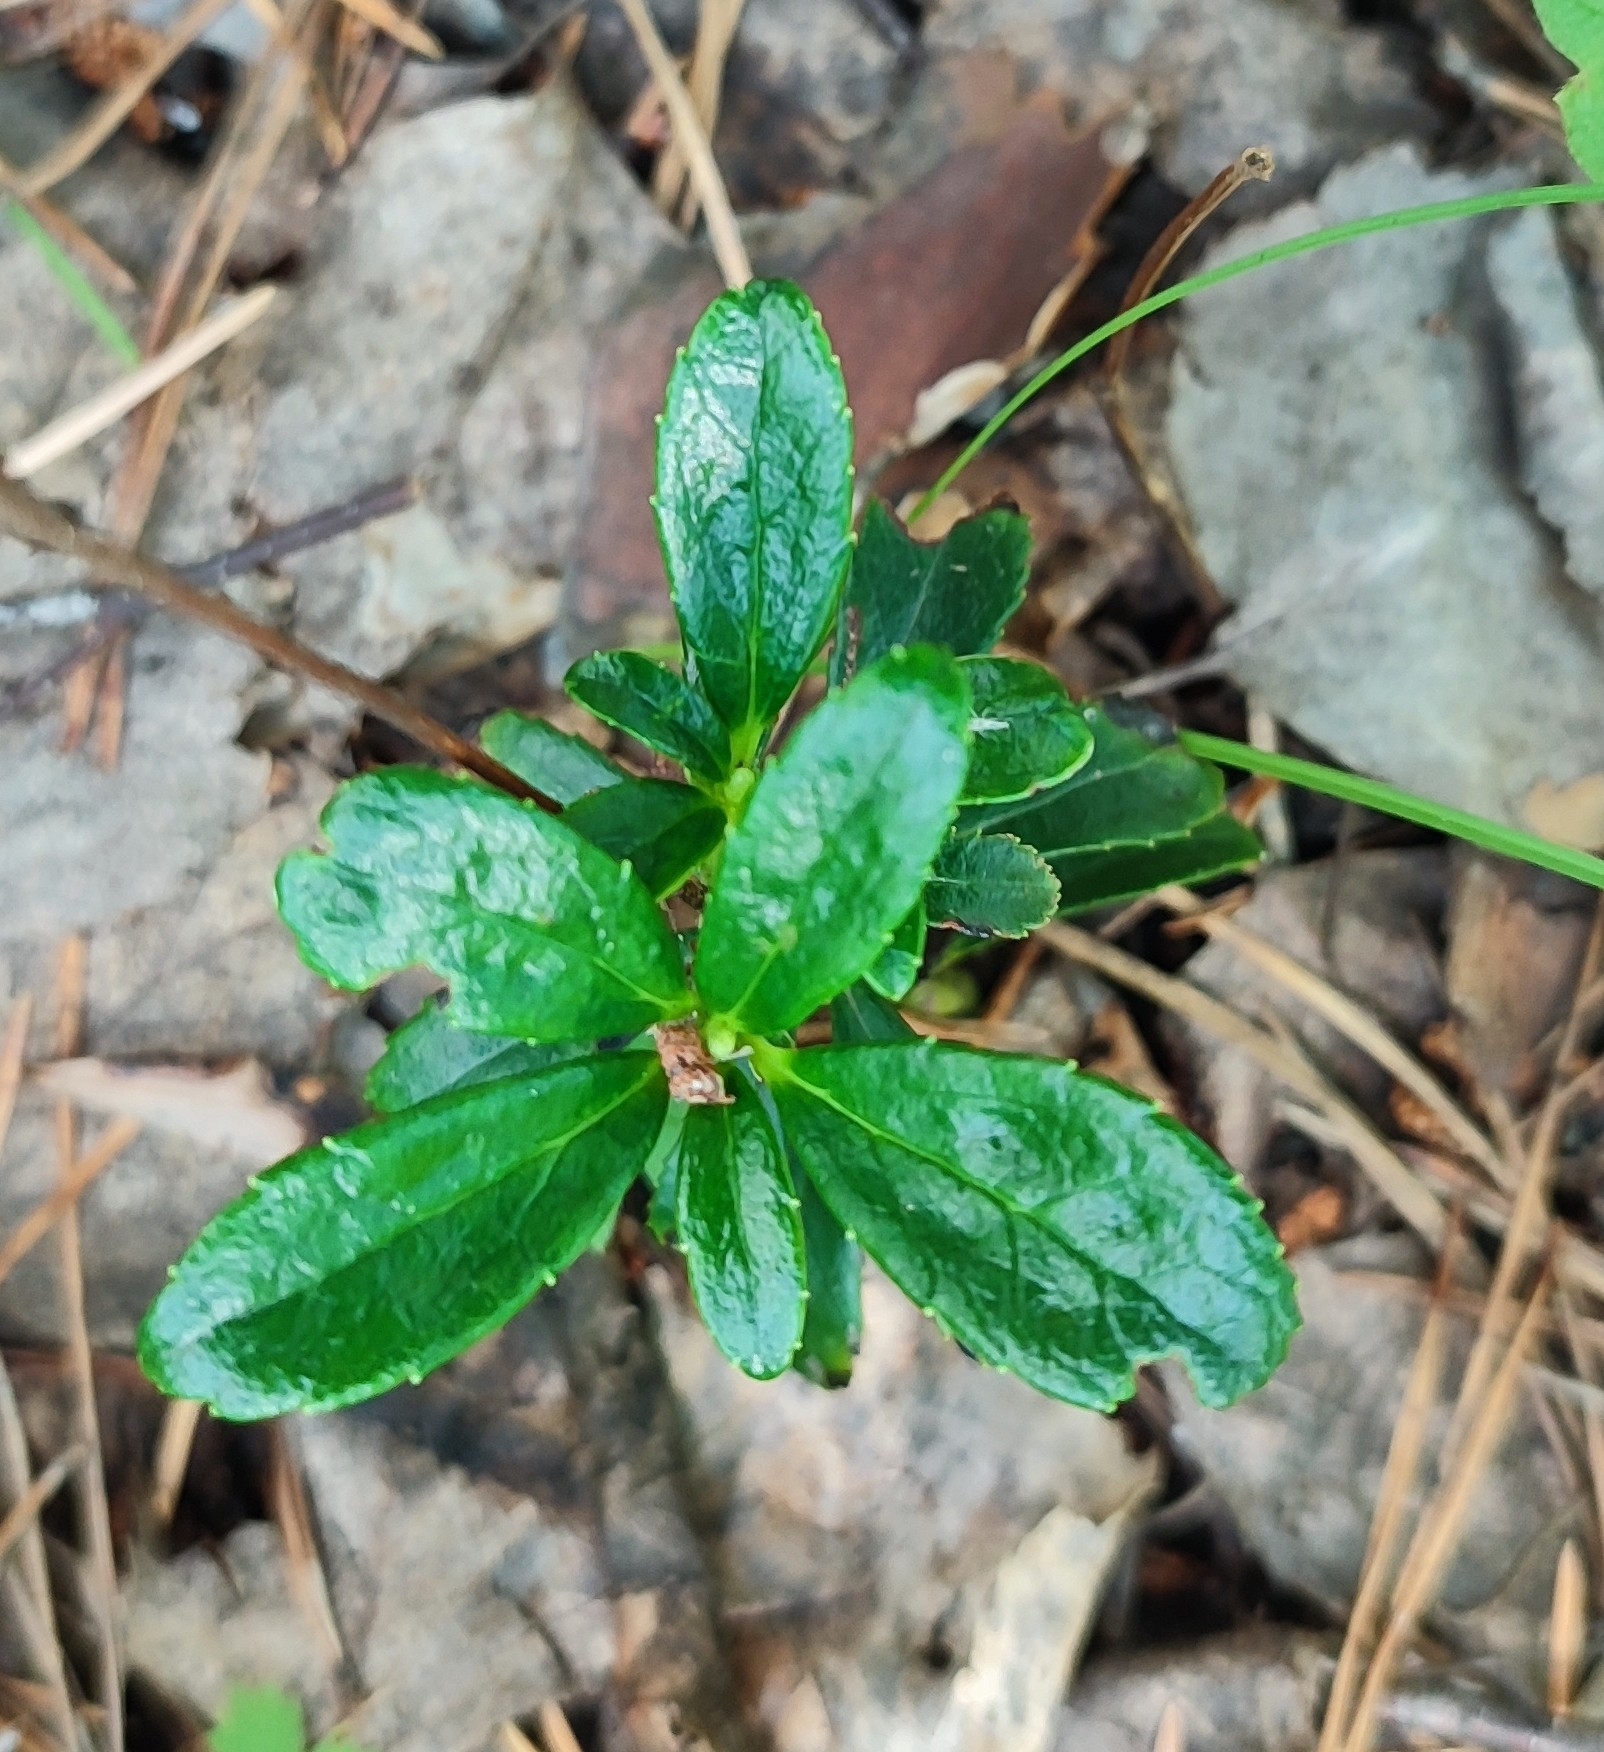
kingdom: Plantae
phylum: Tracheophyta
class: Magnoliopsida
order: Ericales
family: Ericaceae
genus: Chimaphila
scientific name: Chimaphila umbellata
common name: Pipsissewa
